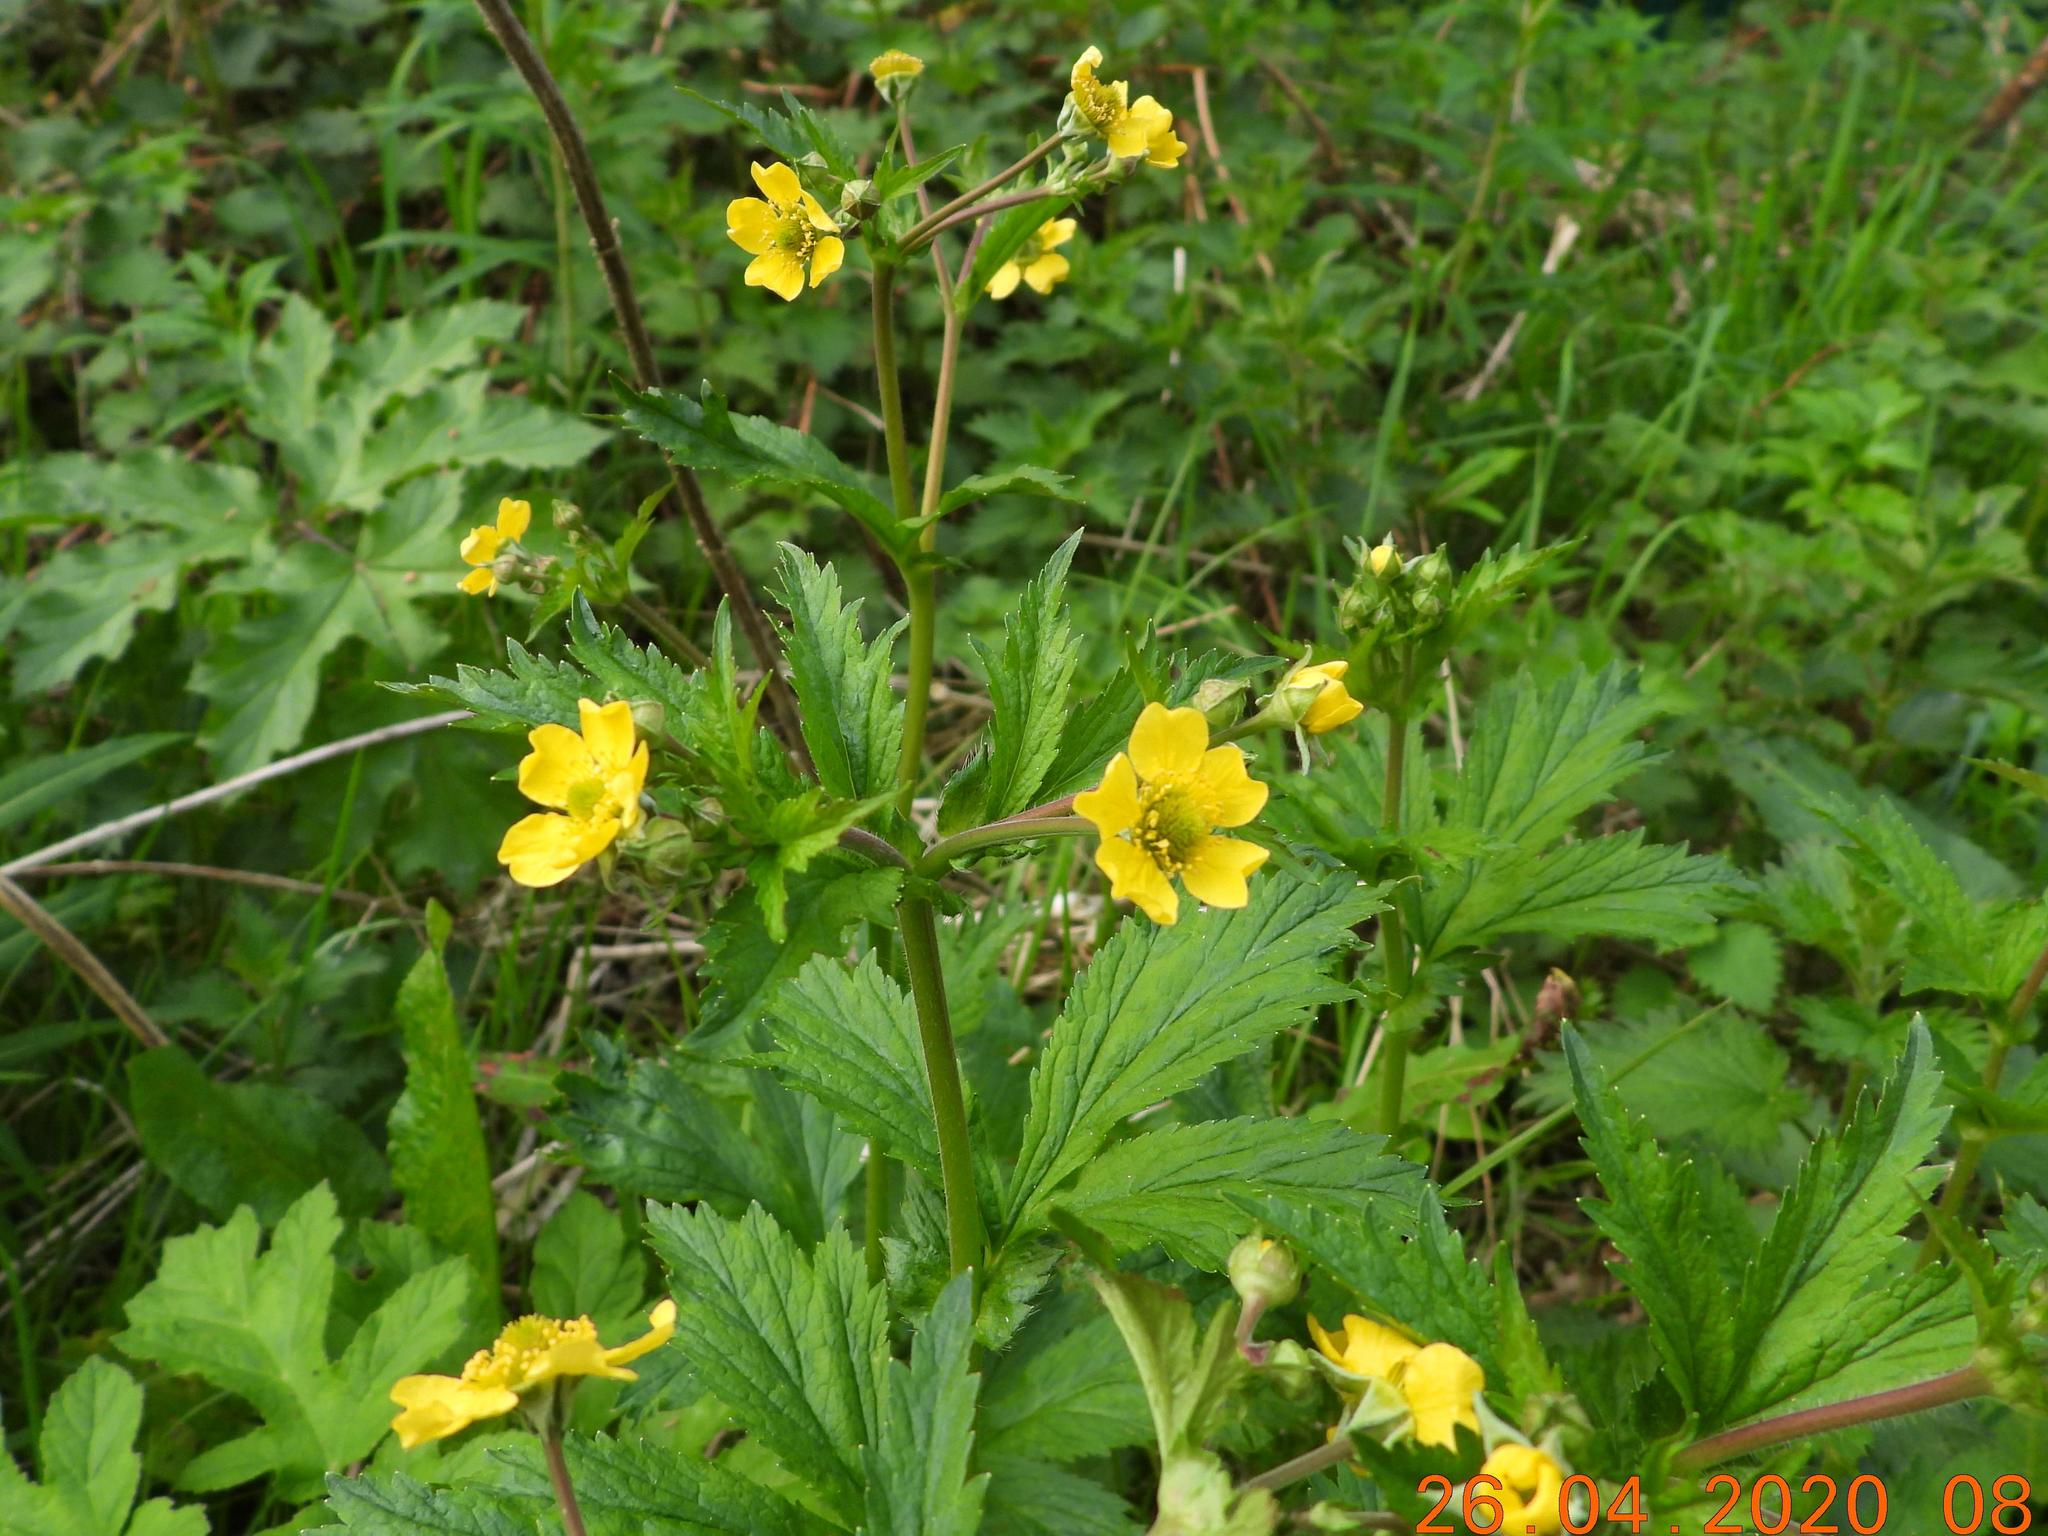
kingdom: Plantae
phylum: Tracheophyta
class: Magnoliopsida
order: Rosales
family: Rosaceae
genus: Geum
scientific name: Geum macrophyllum
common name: Large-leaved avens
